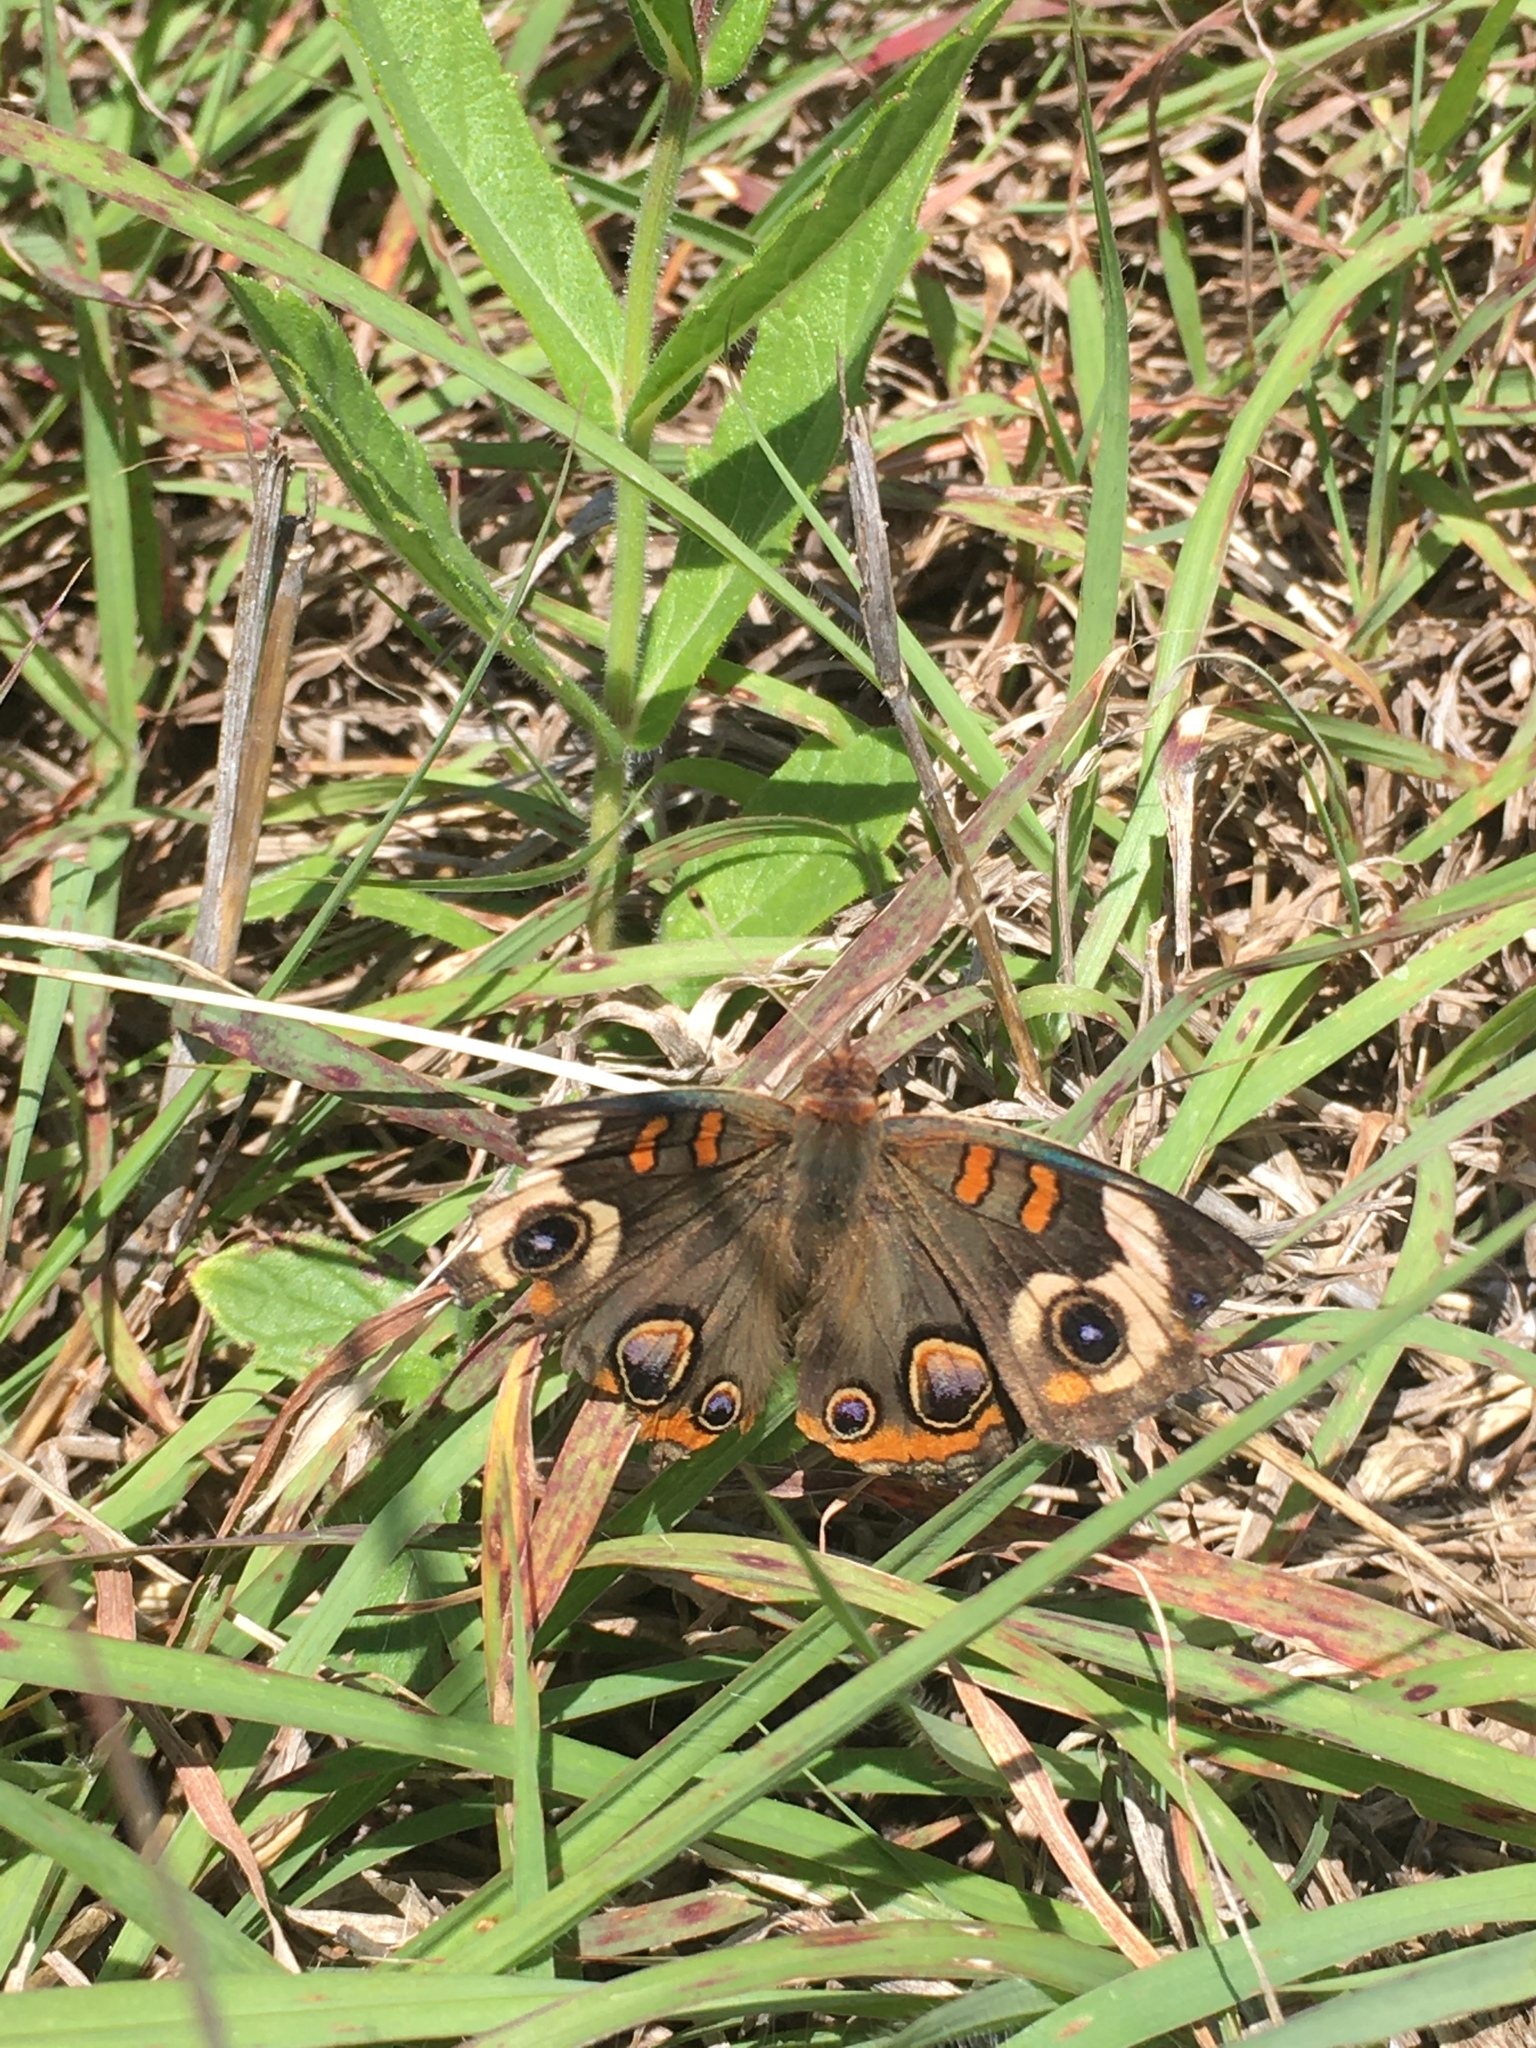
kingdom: Animalia
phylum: Arthropoda
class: Insecta
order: Lepidoptera
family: Nymphalidae
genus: Junonia
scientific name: Junonia coenia
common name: Common buckeye
